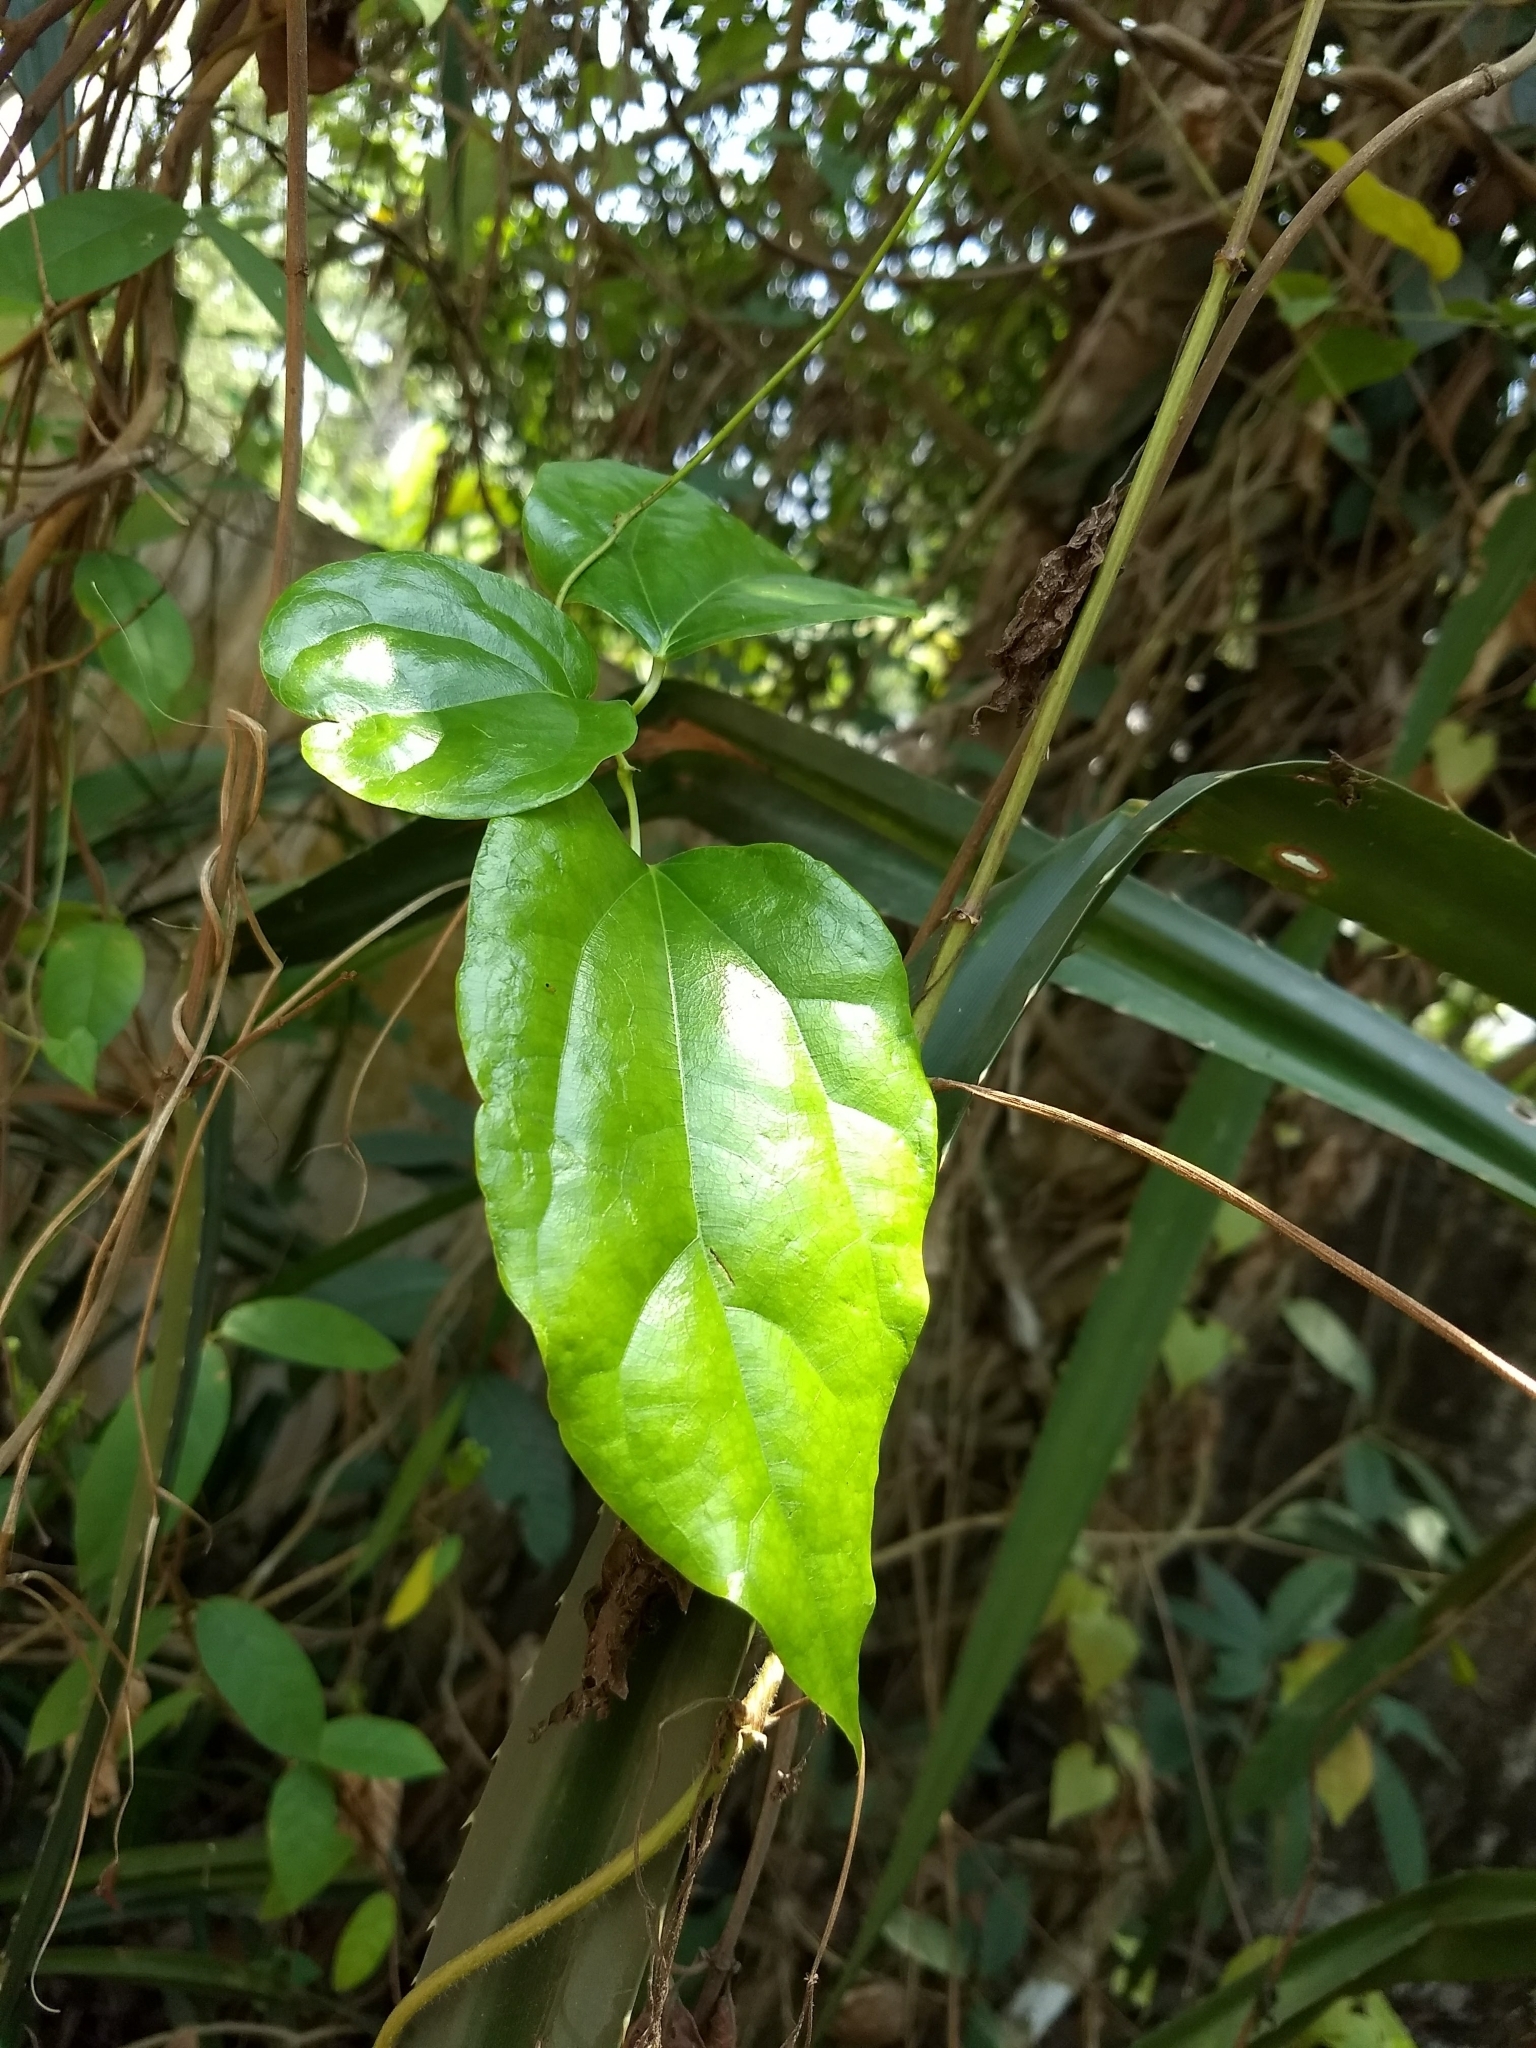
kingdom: Plantae
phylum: Tracheophyta
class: Magnoliopsida
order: Ranunculales
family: Menispermaceae
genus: Tiliacora
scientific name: Tiliacora acuminata
